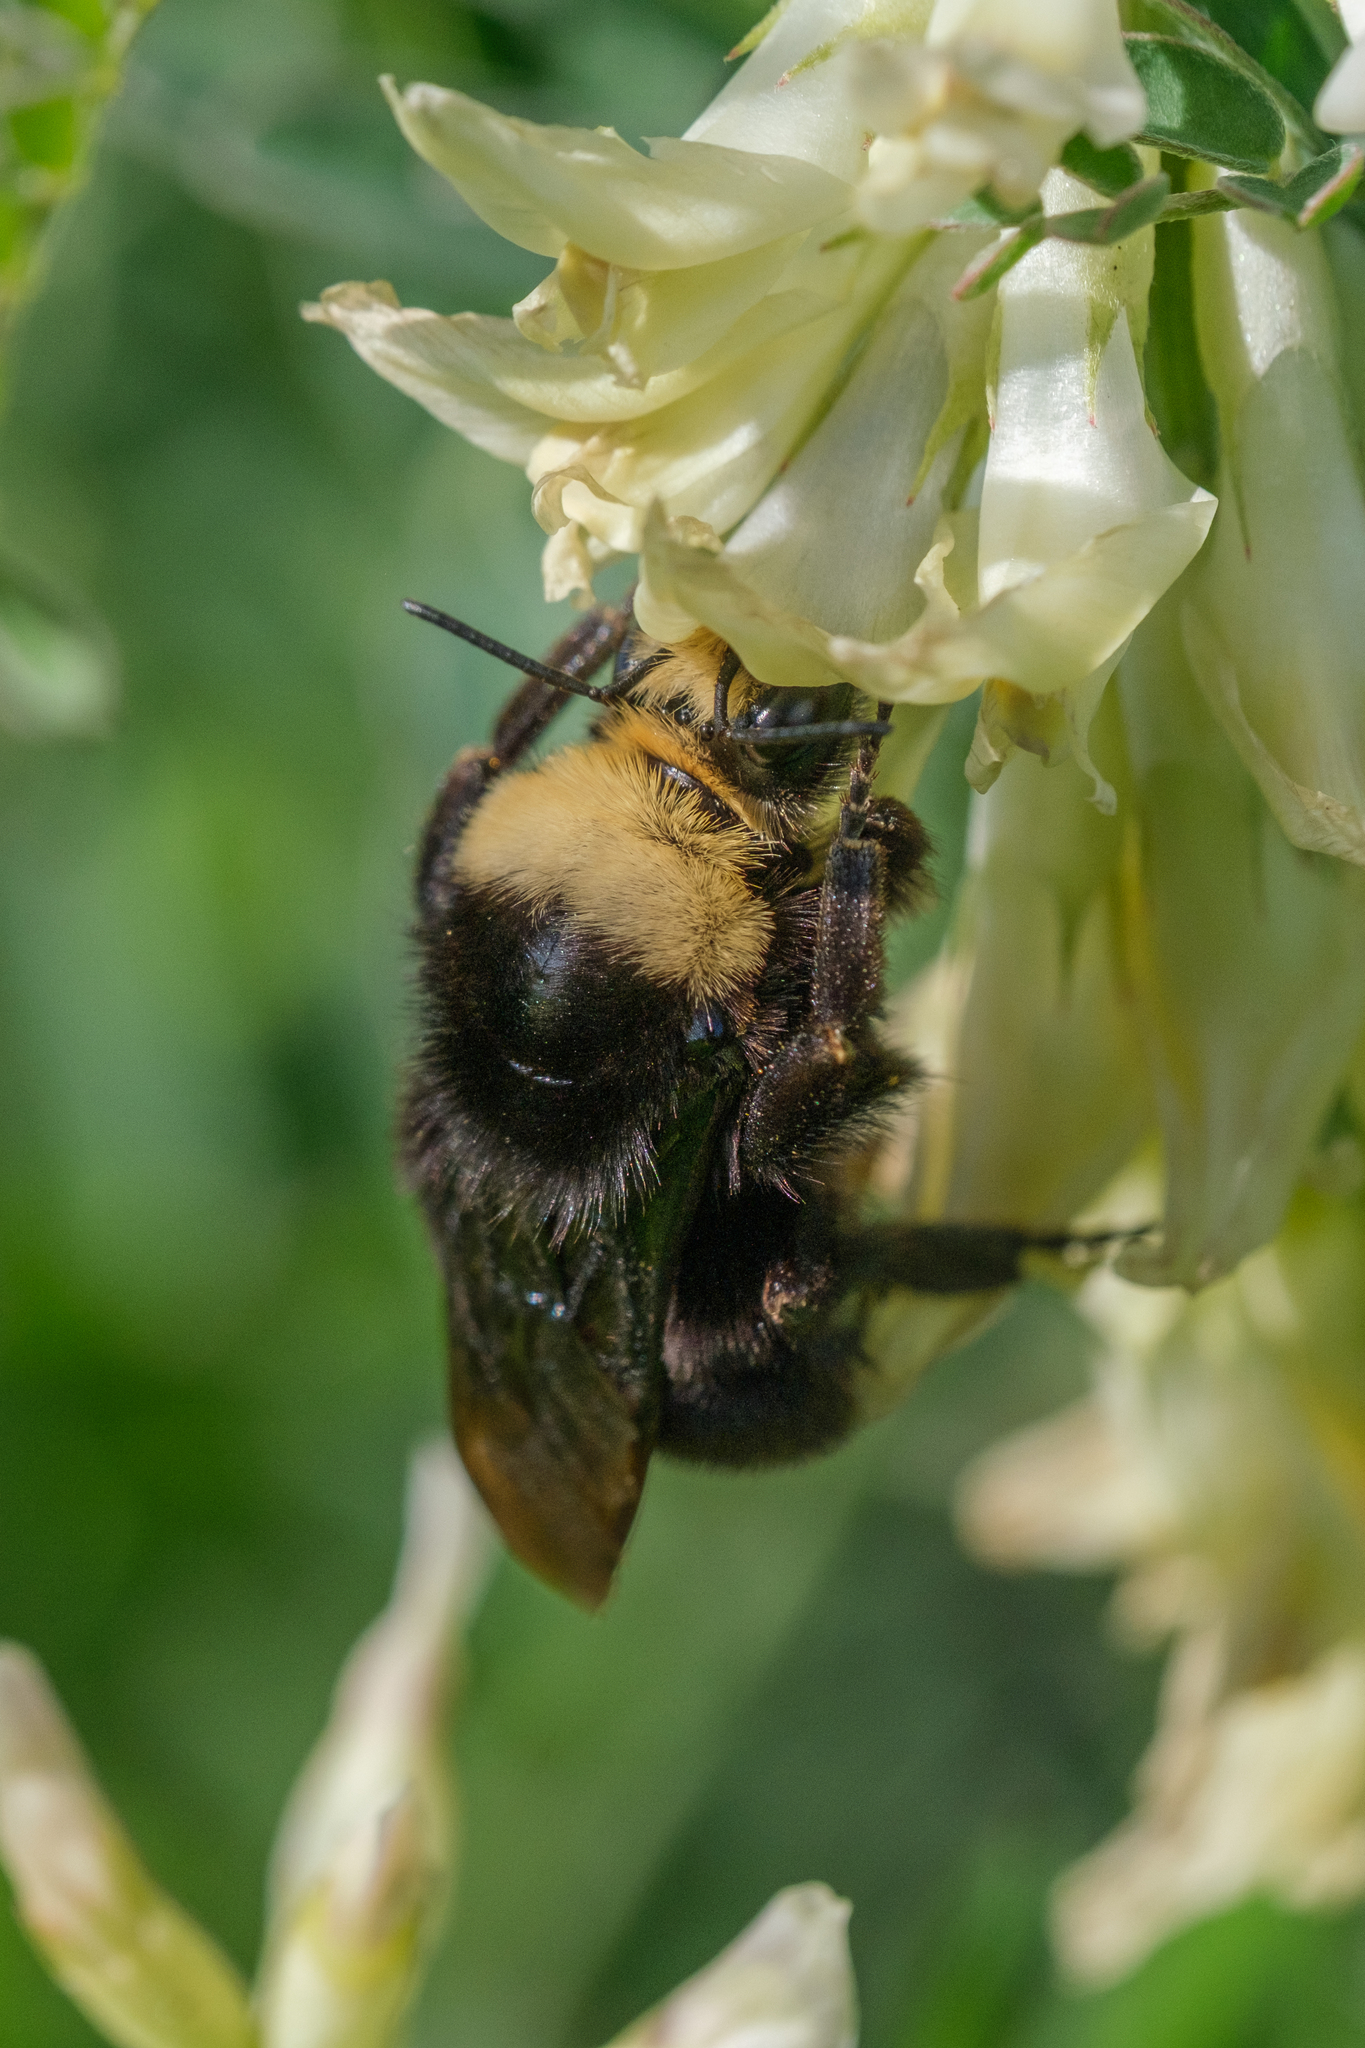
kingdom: Animalia
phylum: Arthropoda
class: Insecta
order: Hymenoptera
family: Apidae
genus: Bombus
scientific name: Bombus vosnesenskii
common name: Vosnesensky bumble bee
